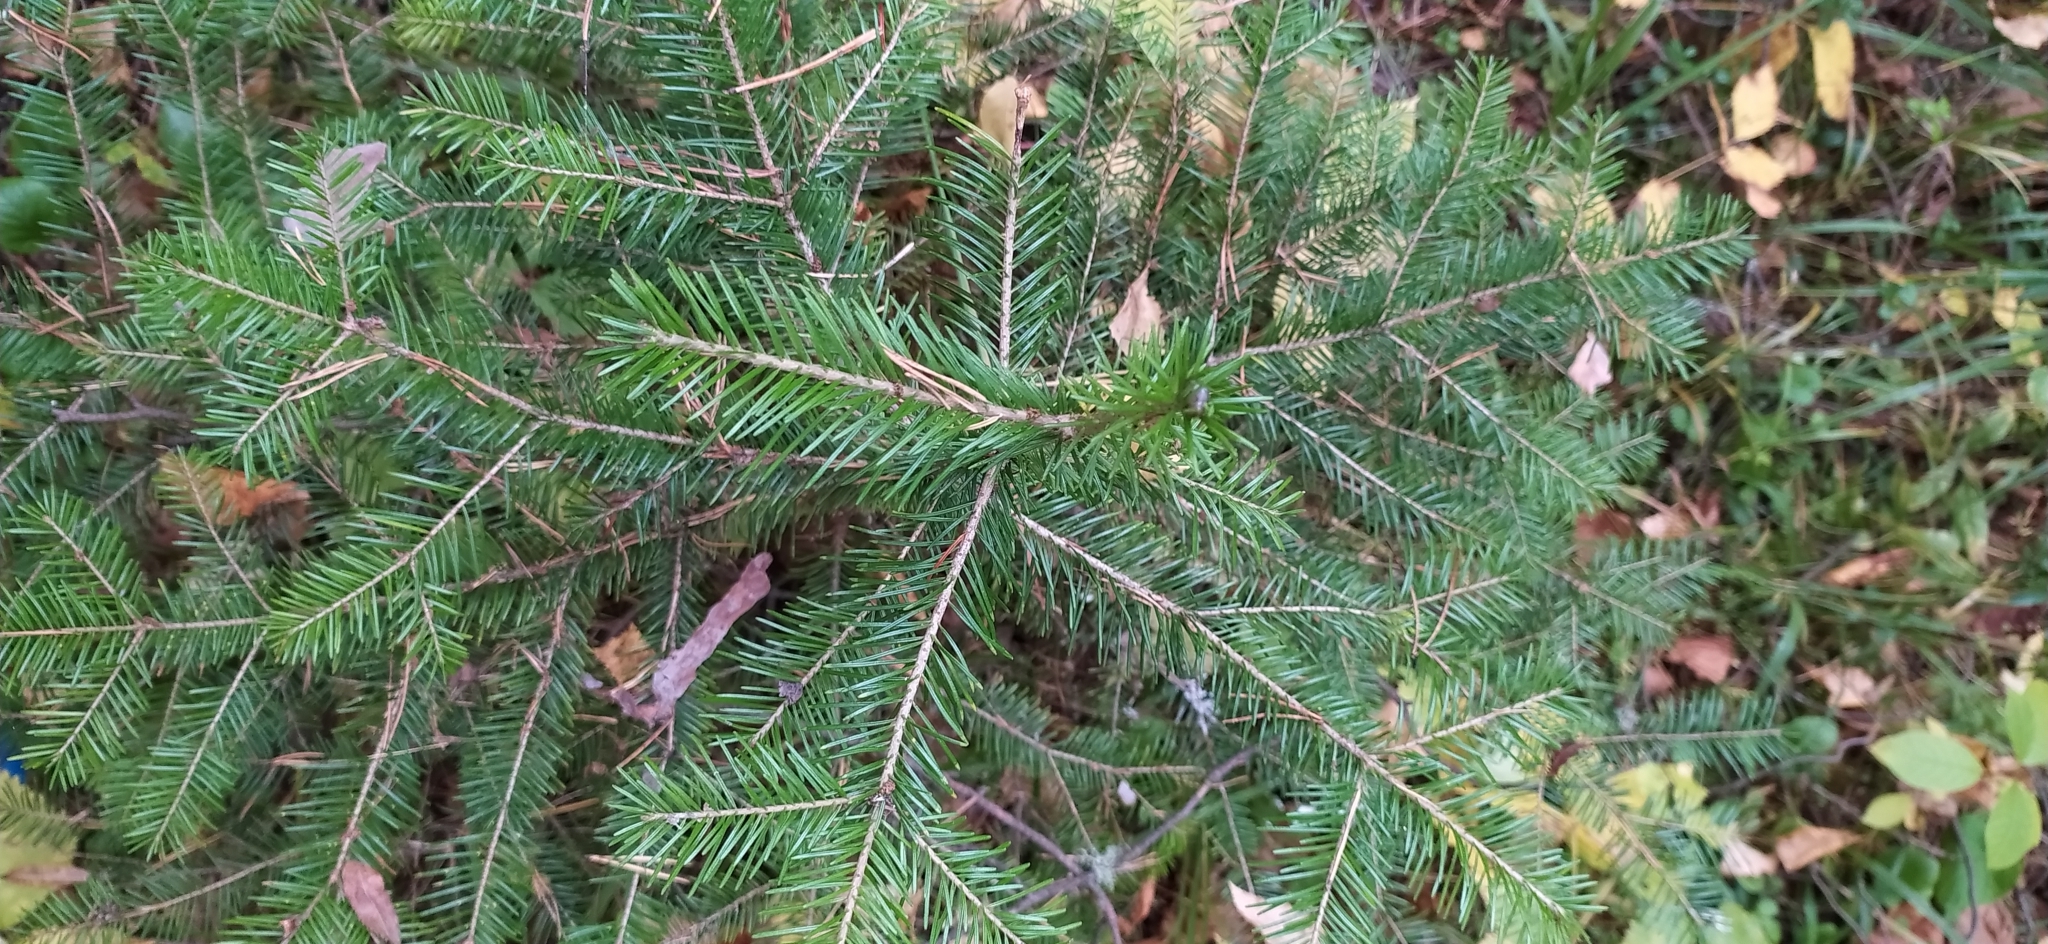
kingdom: Plantae
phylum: Tracheophyta
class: Pinopsida
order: Pinales
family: Pinaceae
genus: Abies
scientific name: Abies sibirica
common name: Siberian fir
